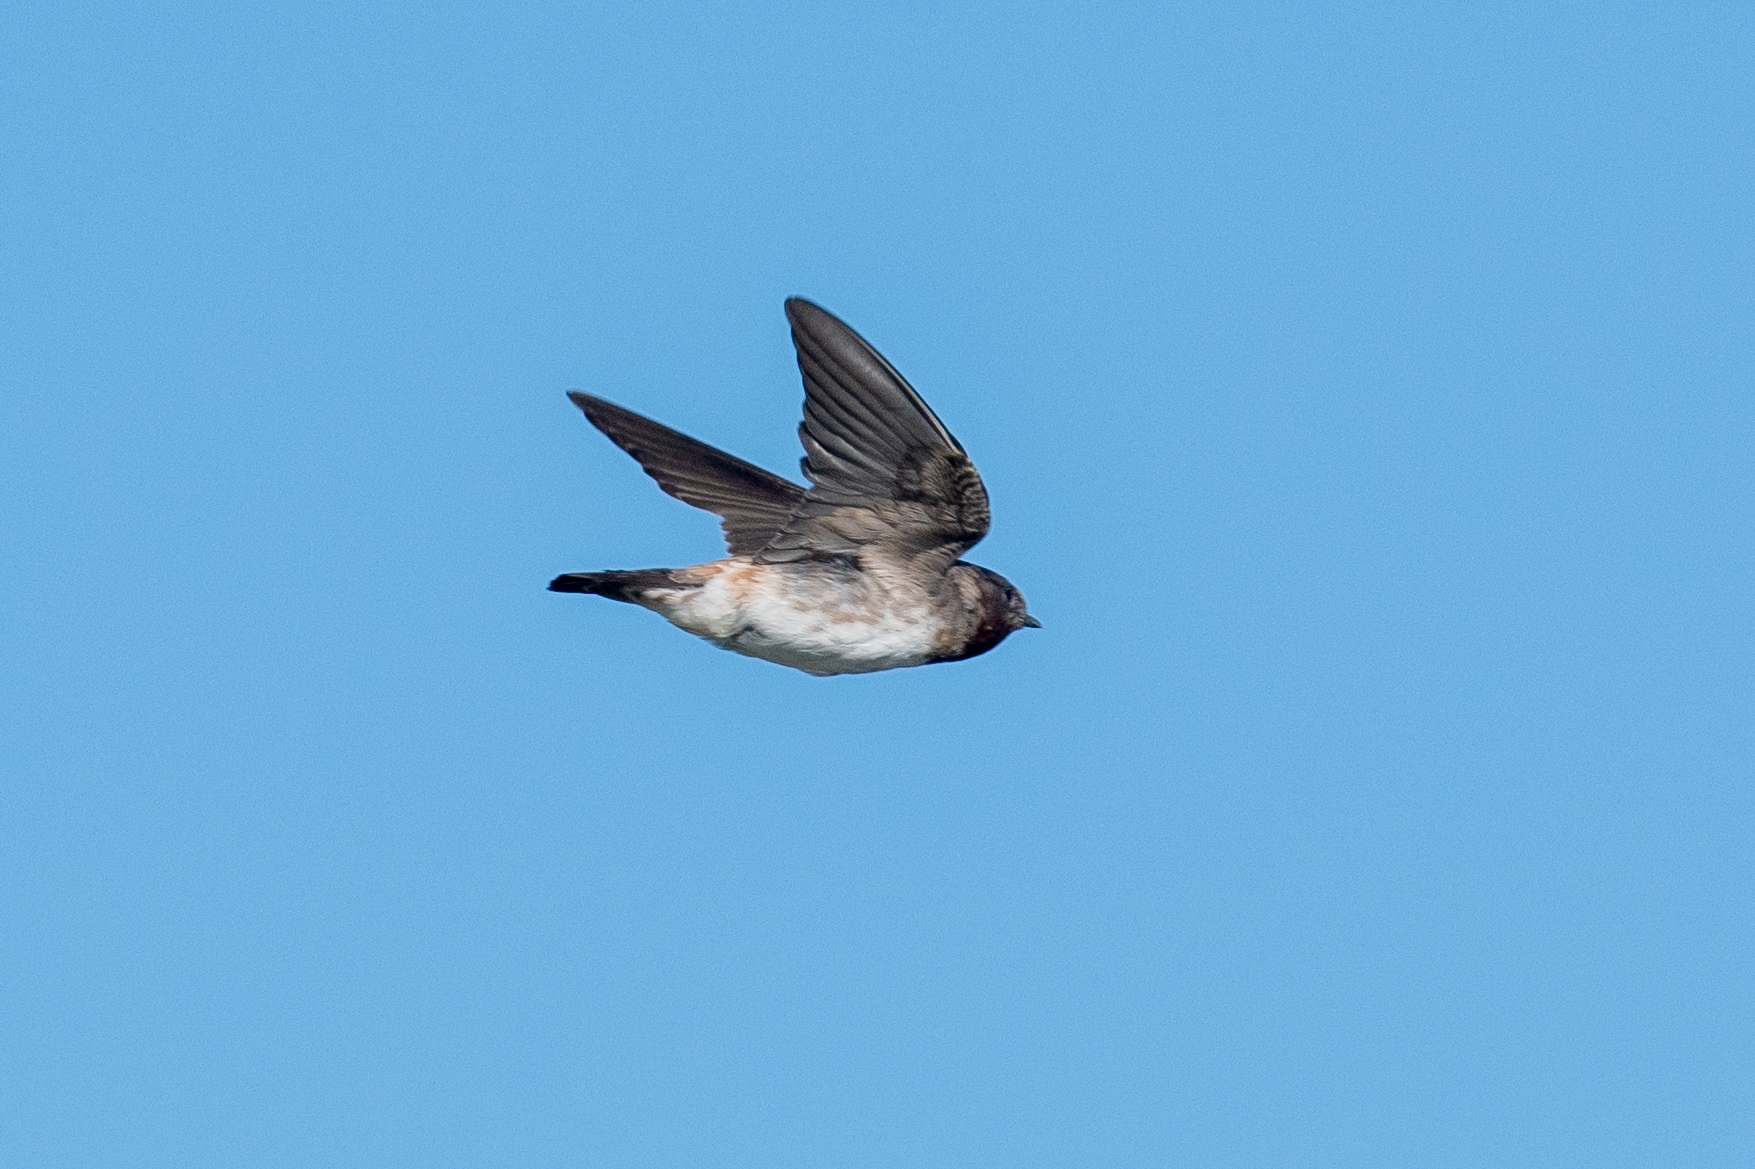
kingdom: Animalia
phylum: Chordata
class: Aves
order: Passeriformes
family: Hirundinidae
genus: Petrochelidon
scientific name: Petrochelidon pyrrhonota
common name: American cliff swallow
